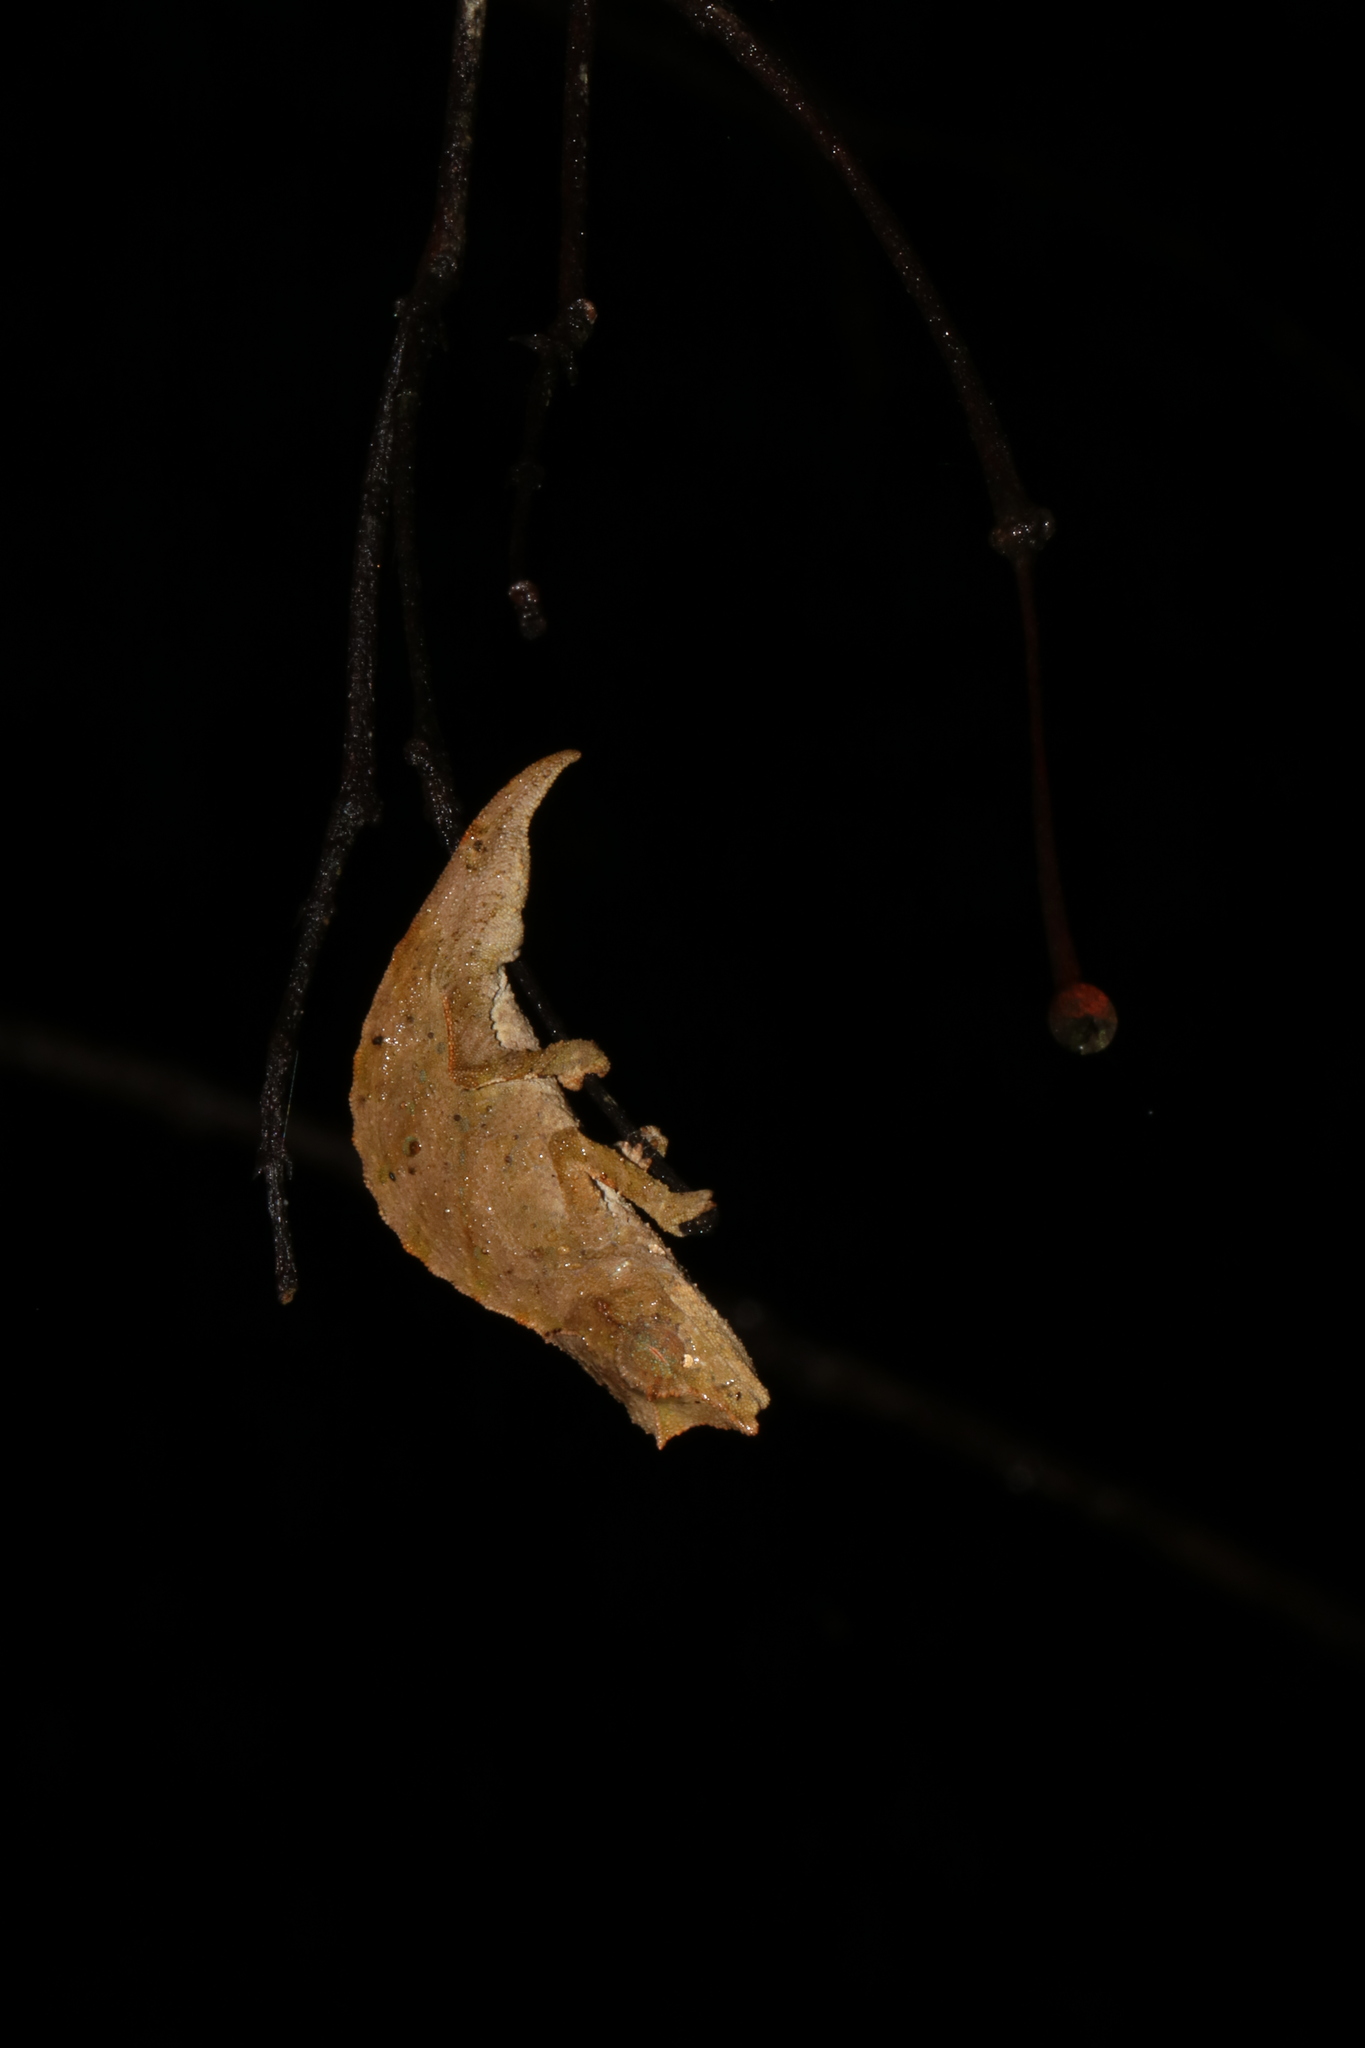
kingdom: Animalia
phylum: Chordata
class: Squamata
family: Chamaeleonidae
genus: Rhampholeon
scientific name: Rhampholeon nchisiensis
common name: South african stumptail chameleon
